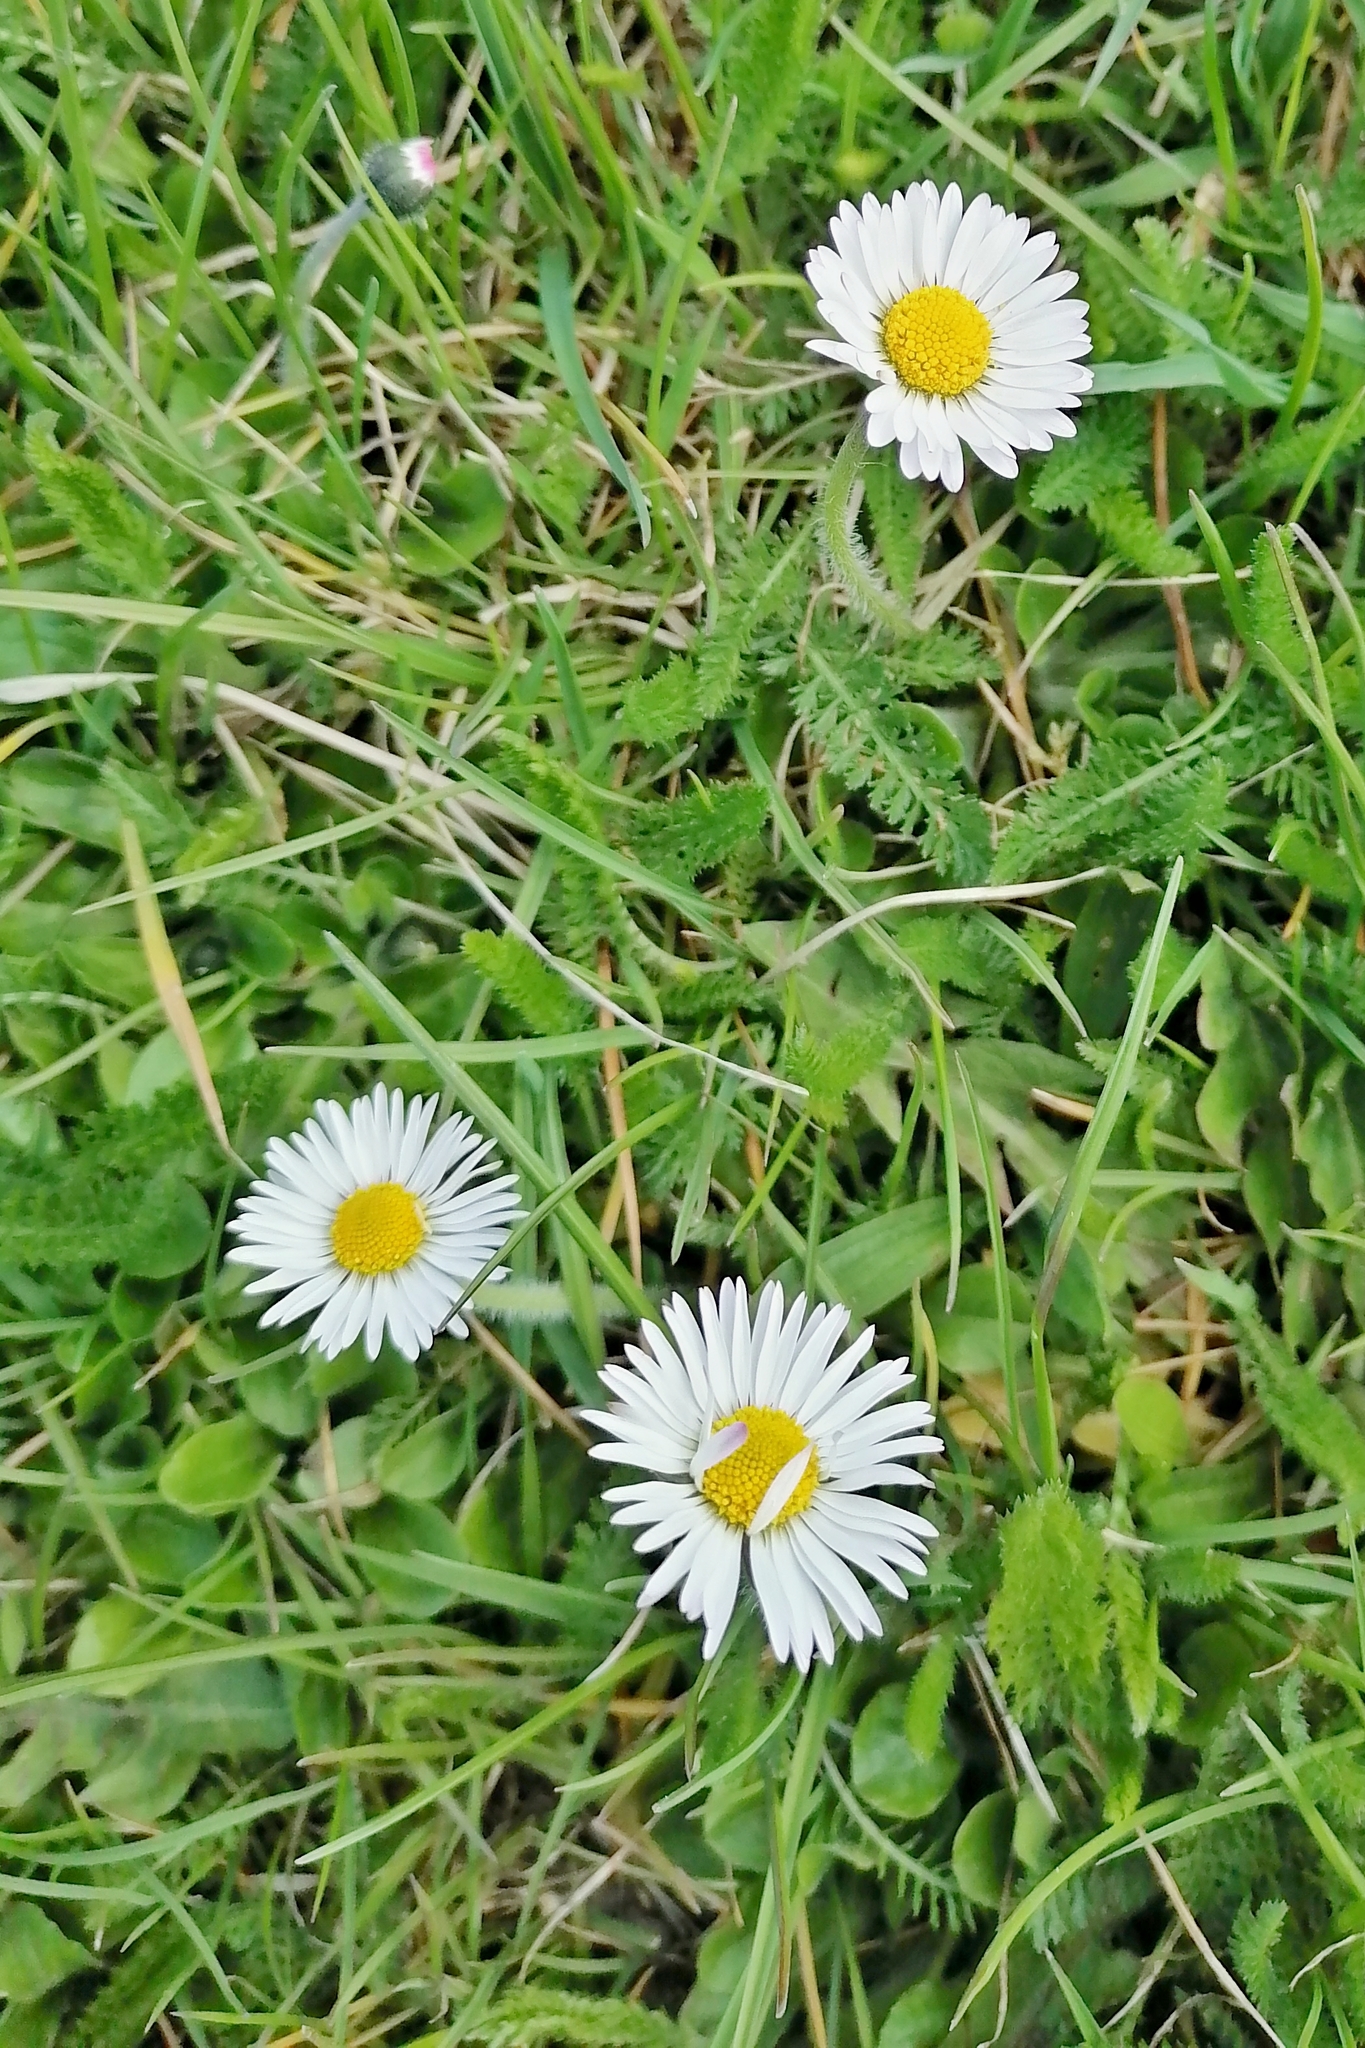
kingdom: Plantae
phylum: Tracheophyta
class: Magnoliopsida
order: Asterales
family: Asteraceae
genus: Bellis
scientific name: Bellis perennis
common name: Lawndaisy
